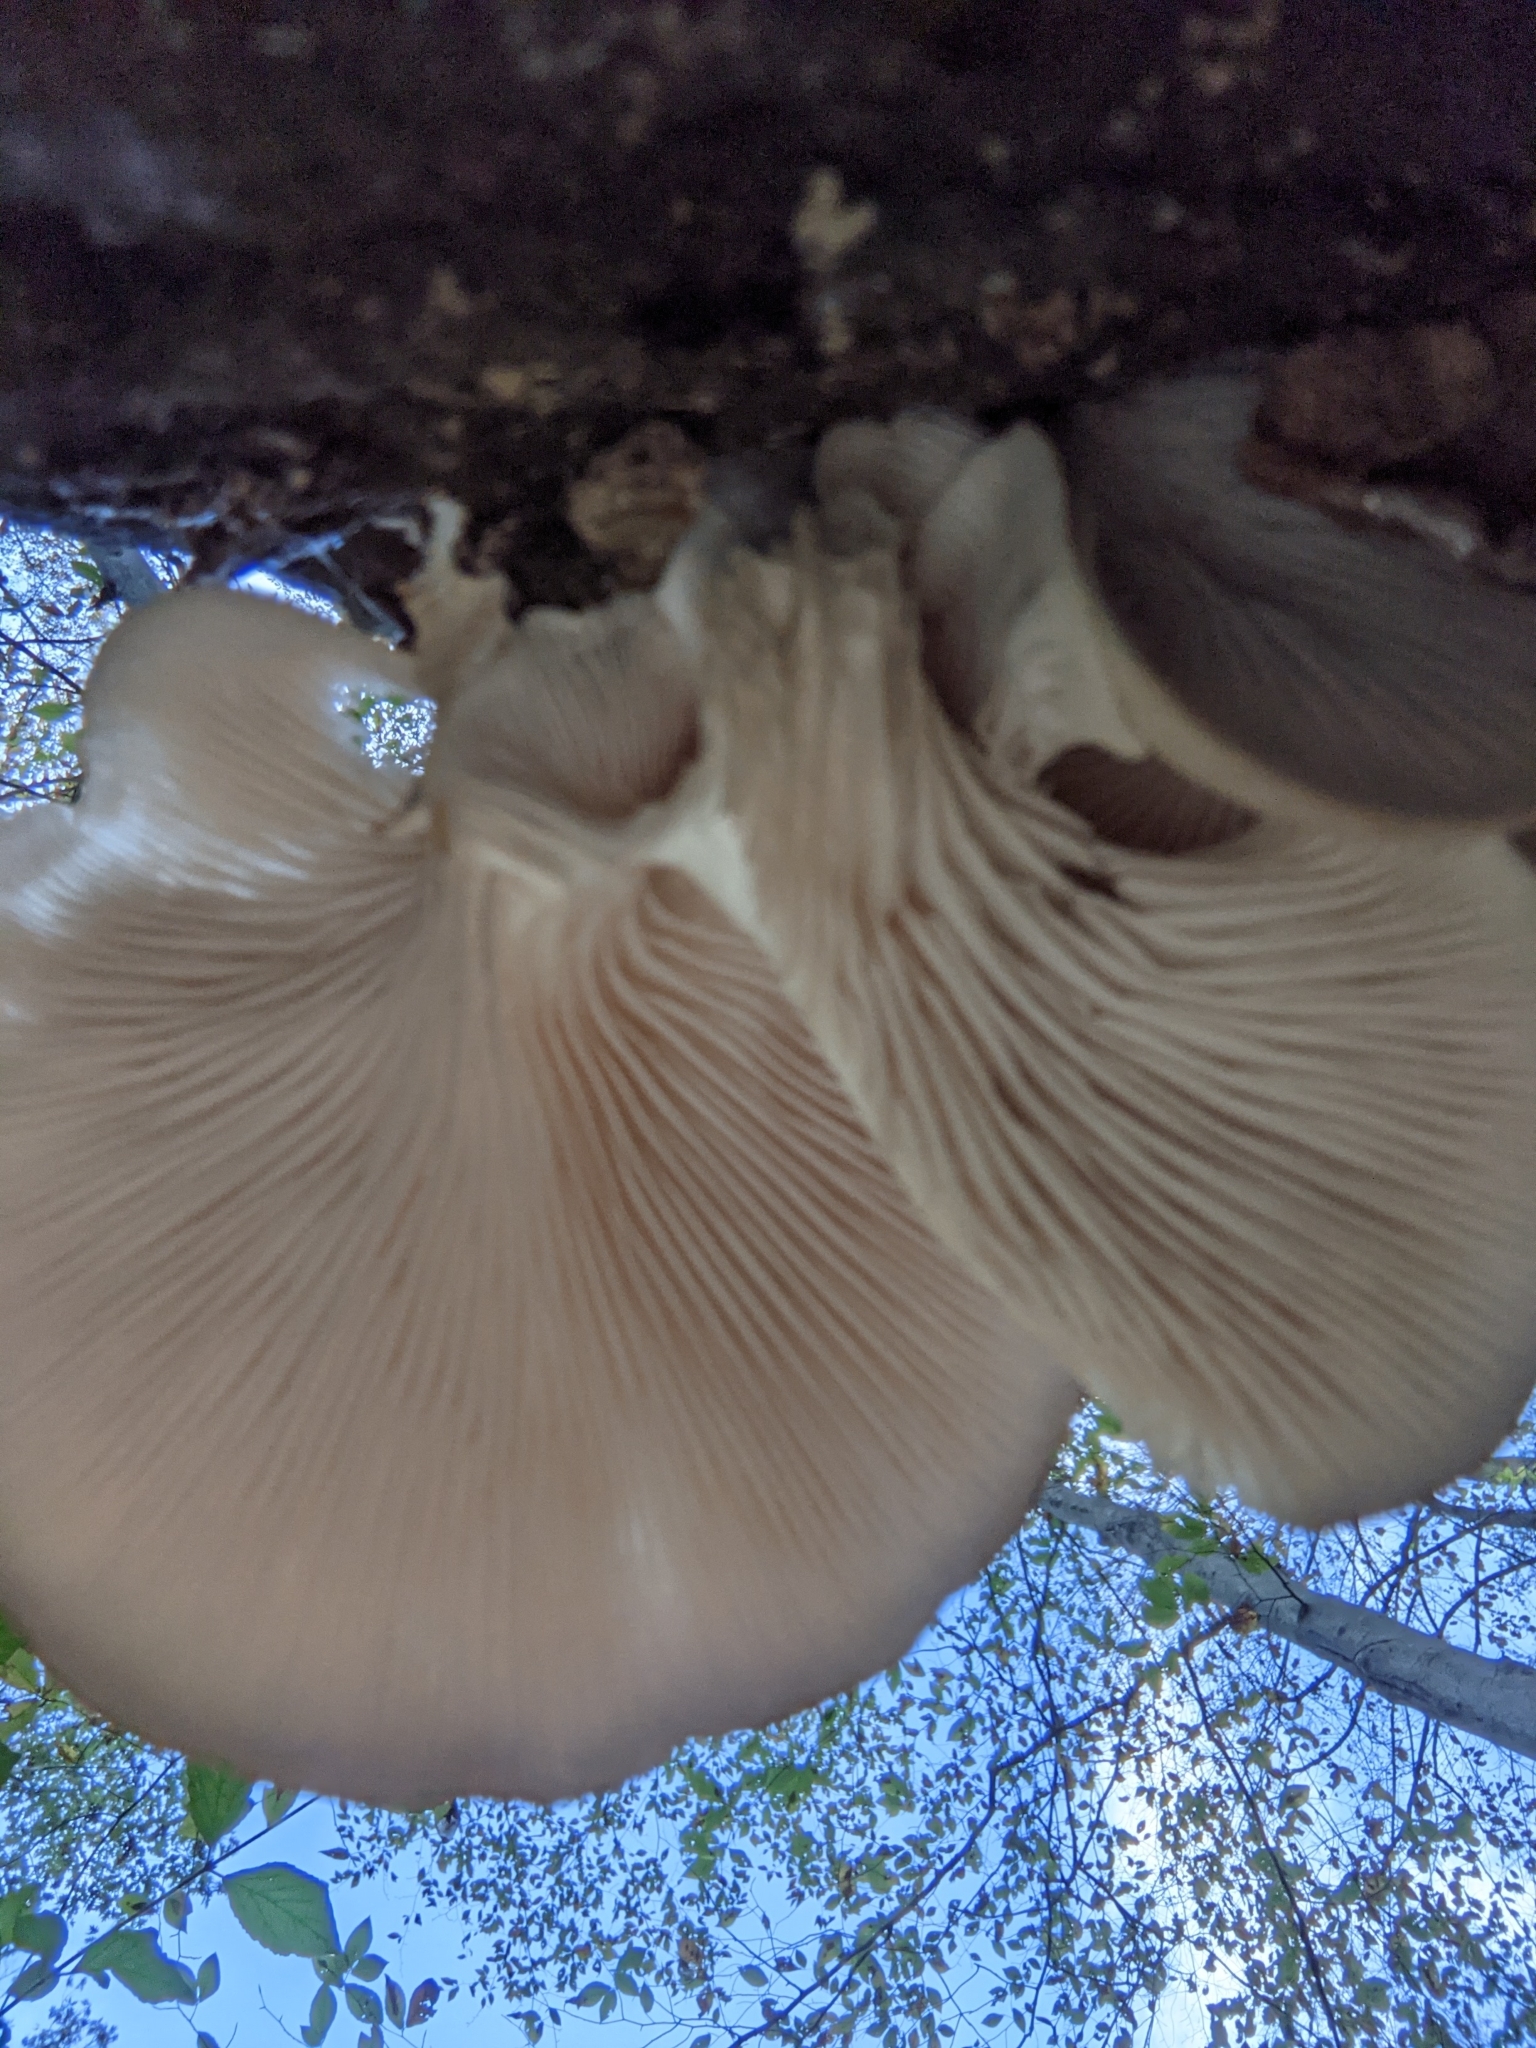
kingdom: Fungi
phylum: Basidiomycota
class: Agaricomycetes
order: Agaricales
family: Pleurotaceae
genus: Pleurotus
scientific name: Pleurotus ostreatus
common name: Oyster mushroom
